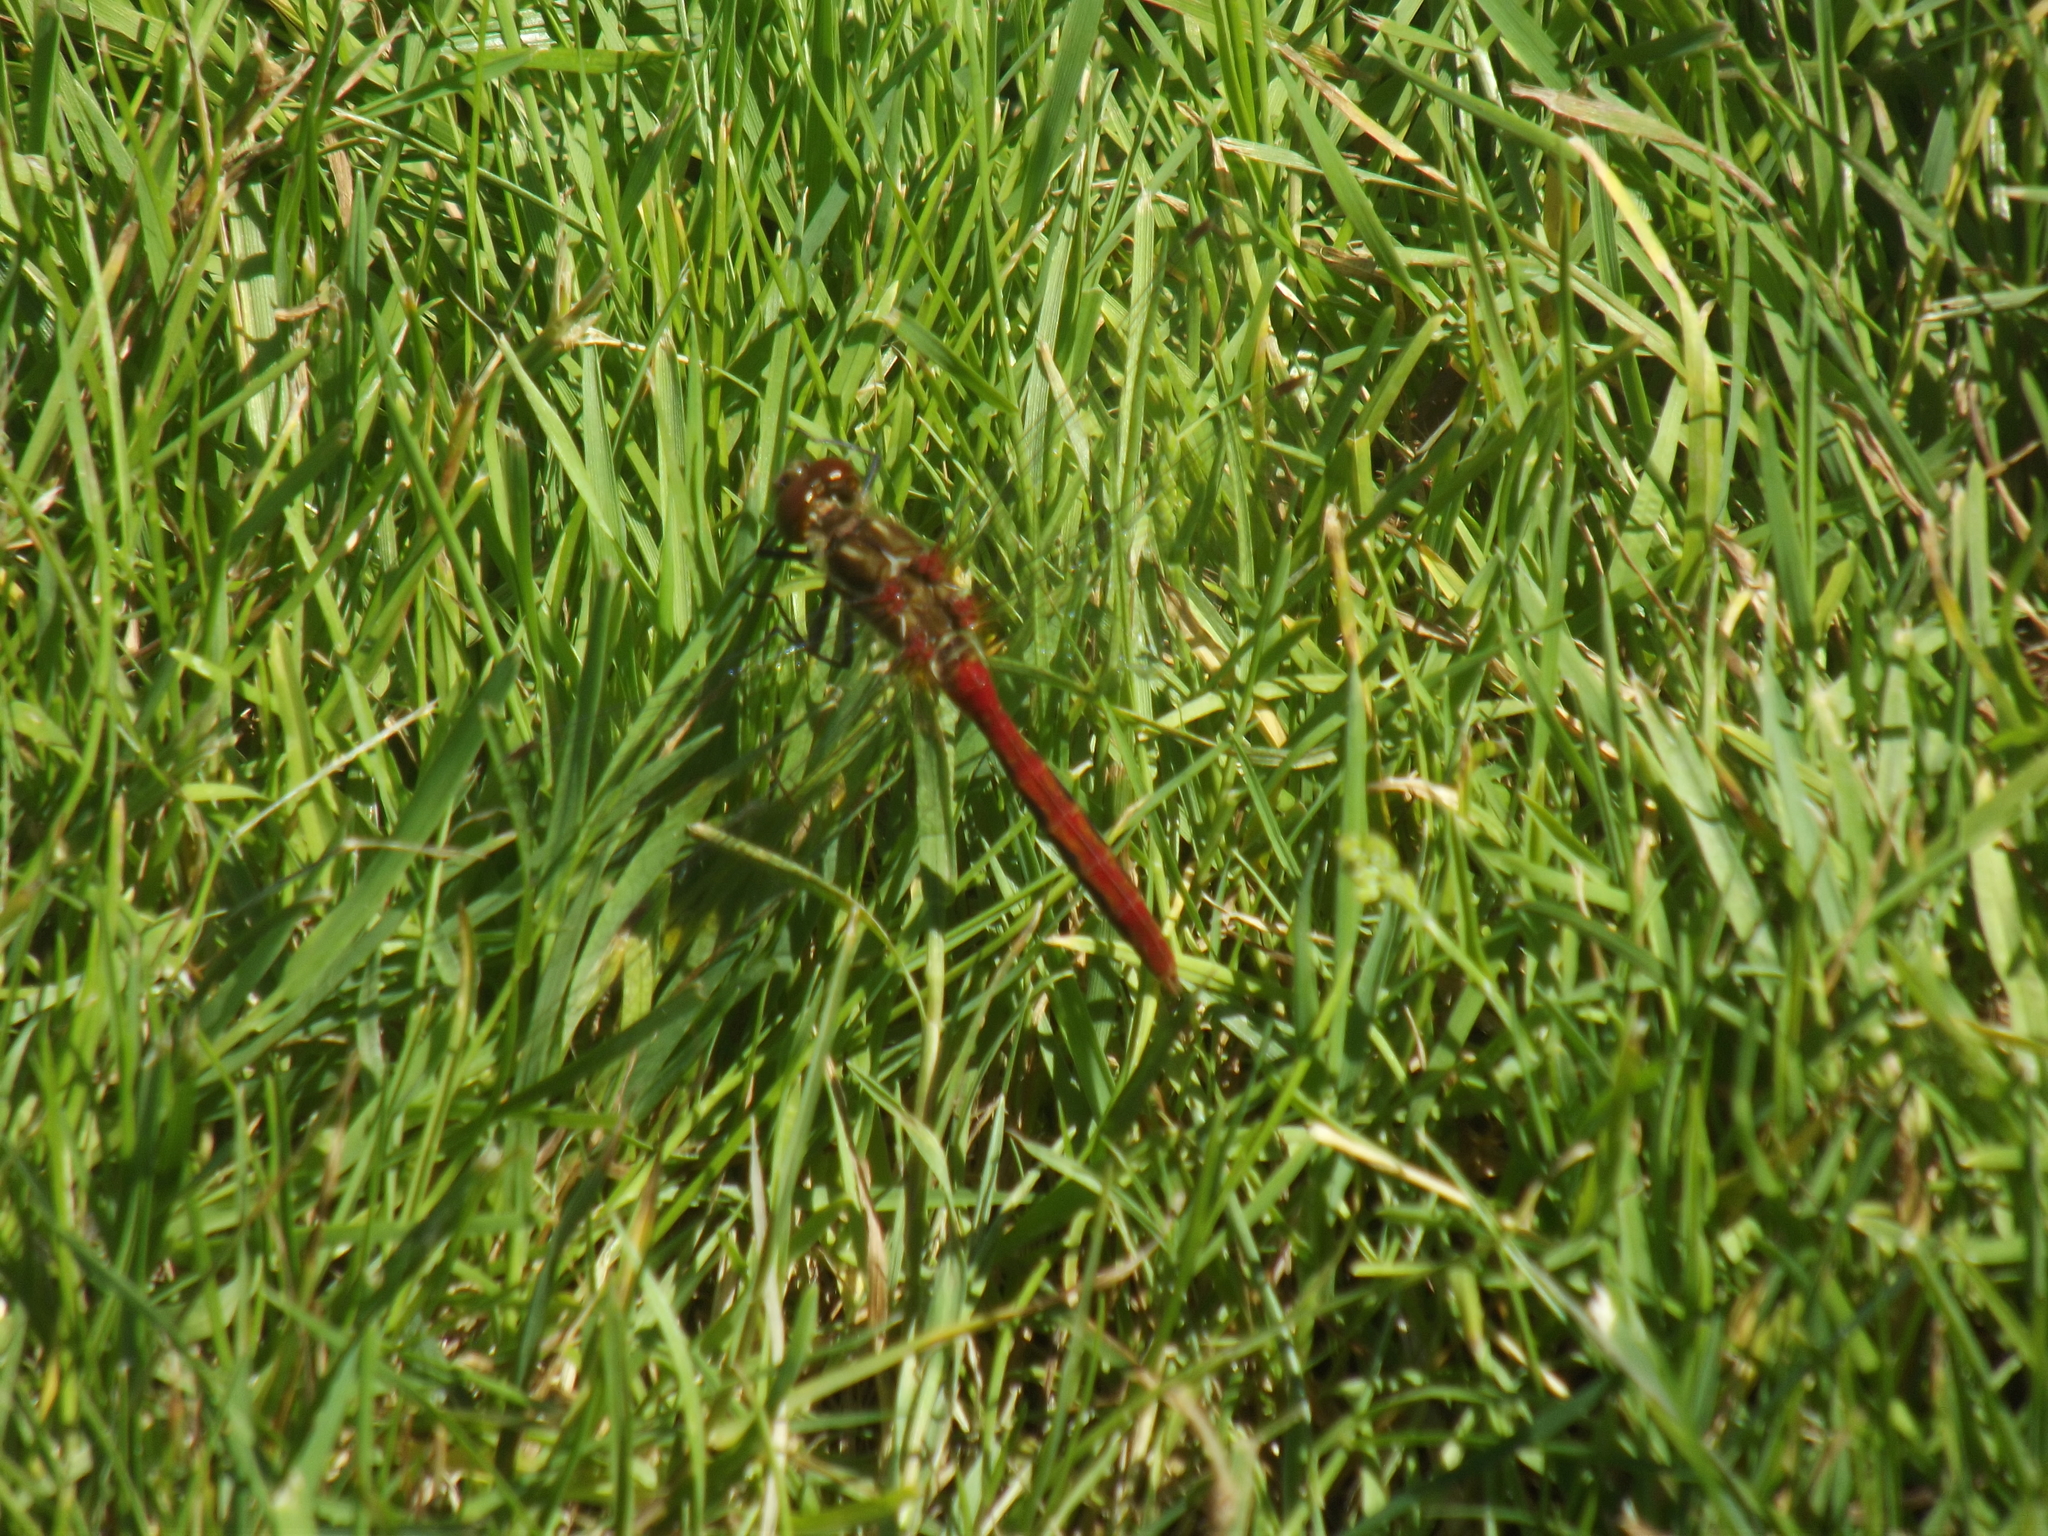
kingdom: Animalia
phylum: Arthropoda
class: Insecta
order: Odonata
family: Libellulidae
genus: Sympetrum
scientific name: Sympetrum pallipes
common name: Striped meadowhawk
